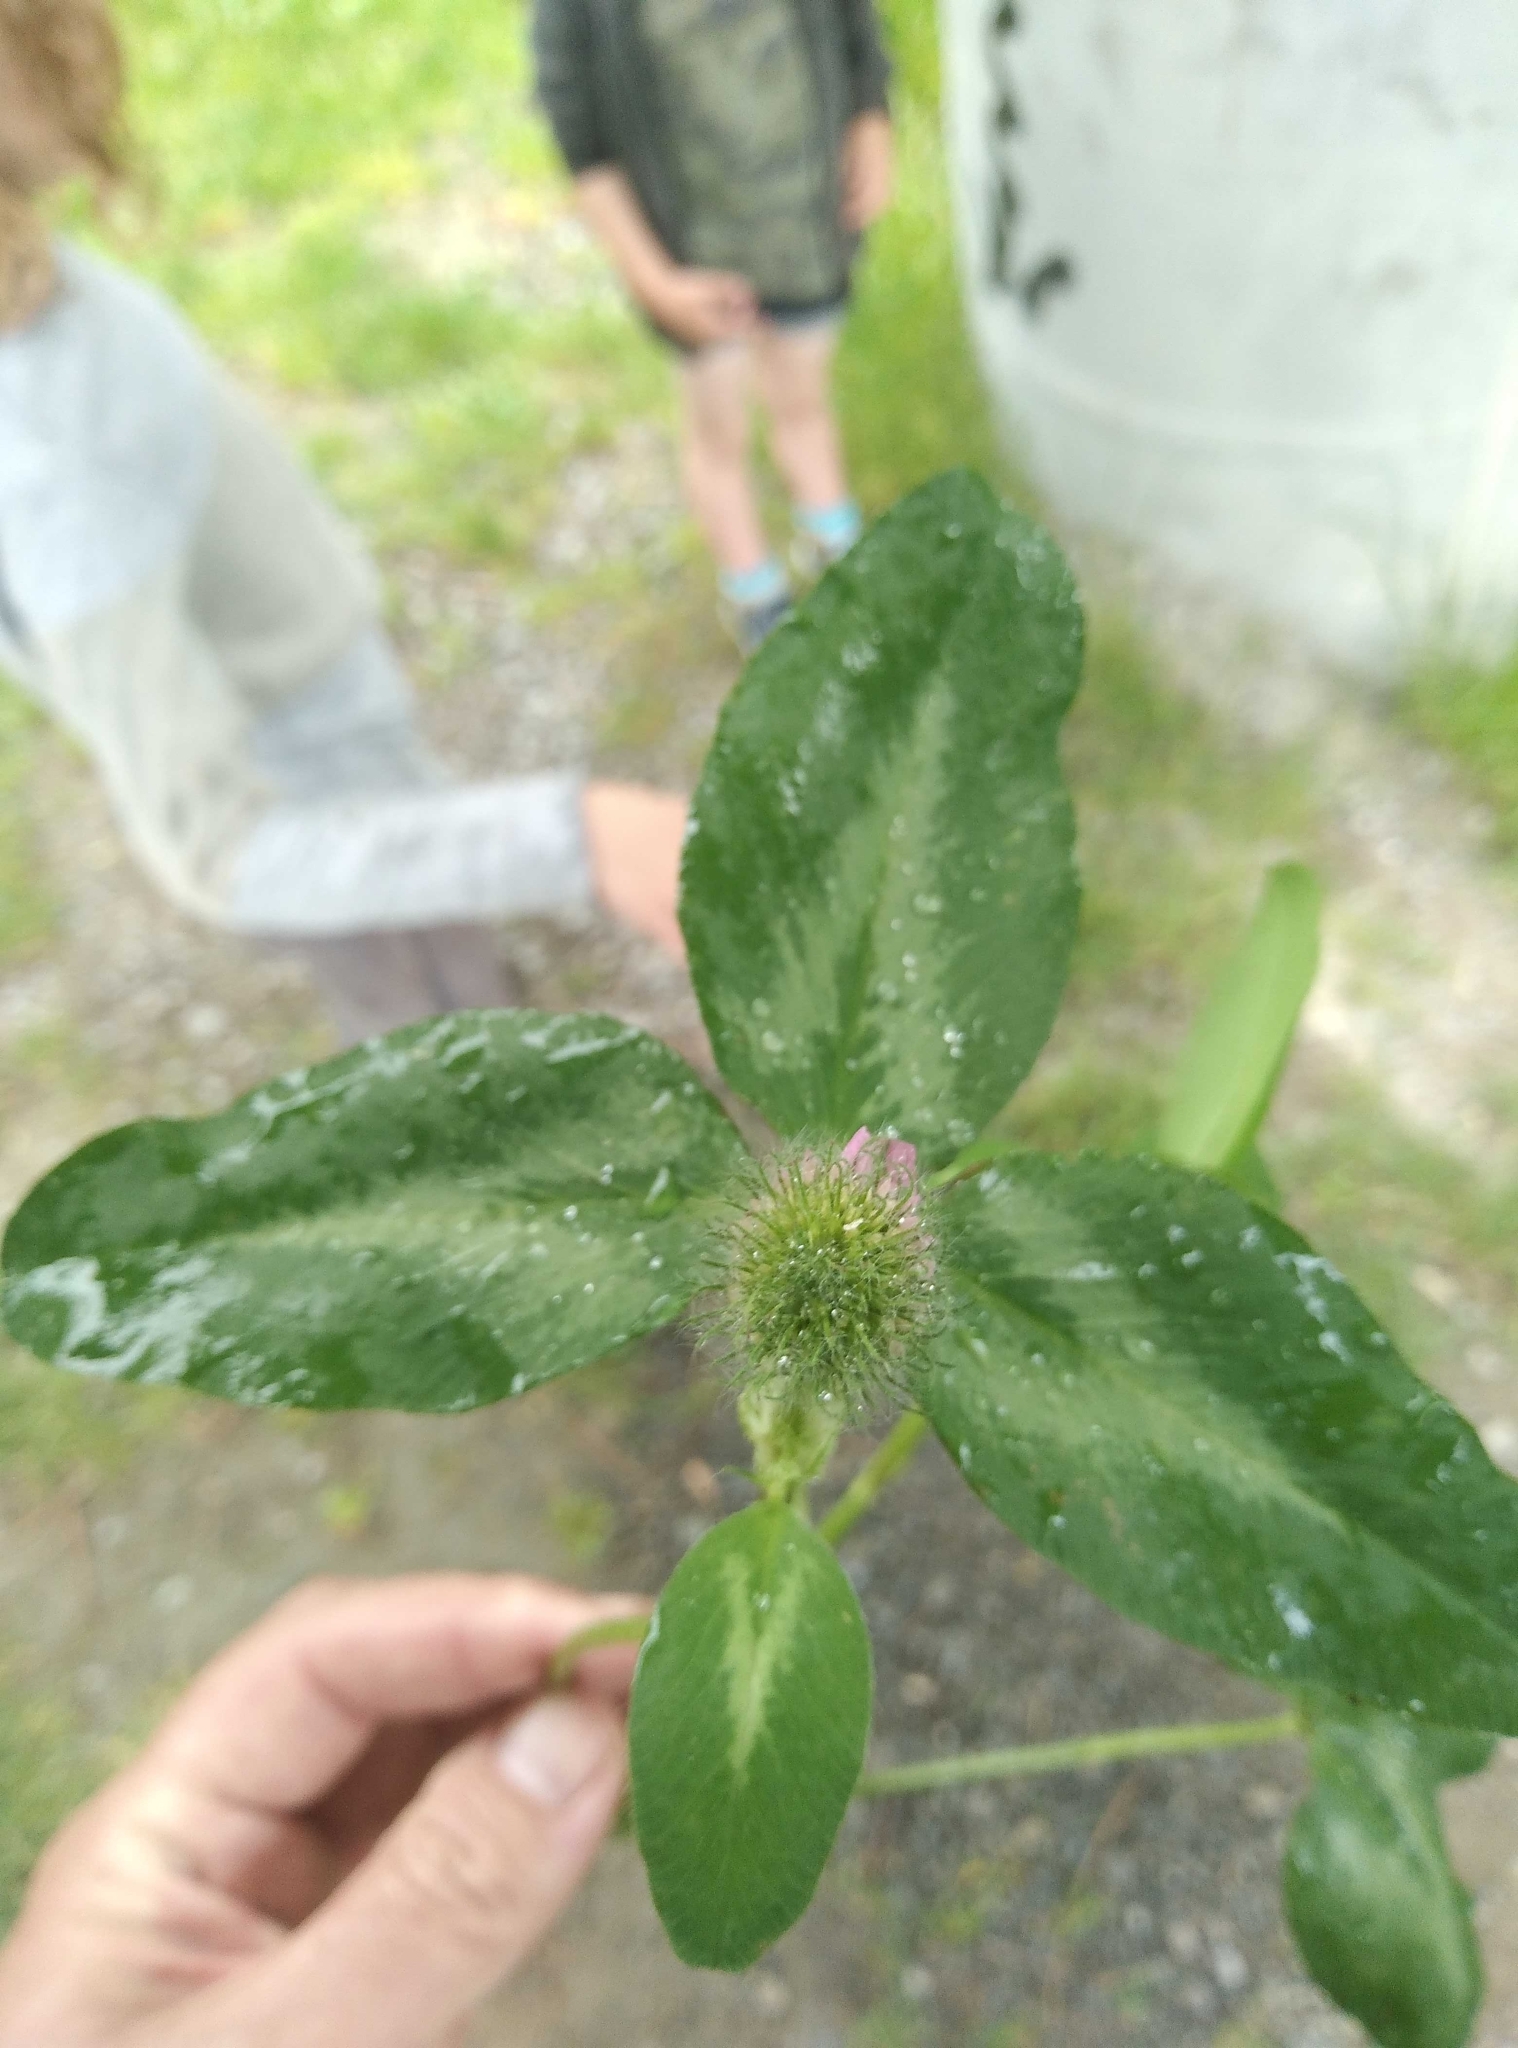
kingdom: Plantae
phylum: Tracheophyta
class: Magnoliopsida
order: Fabales
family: Fabaceae
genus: Trifolium
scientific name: Trifolium pratense
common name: Red clover
